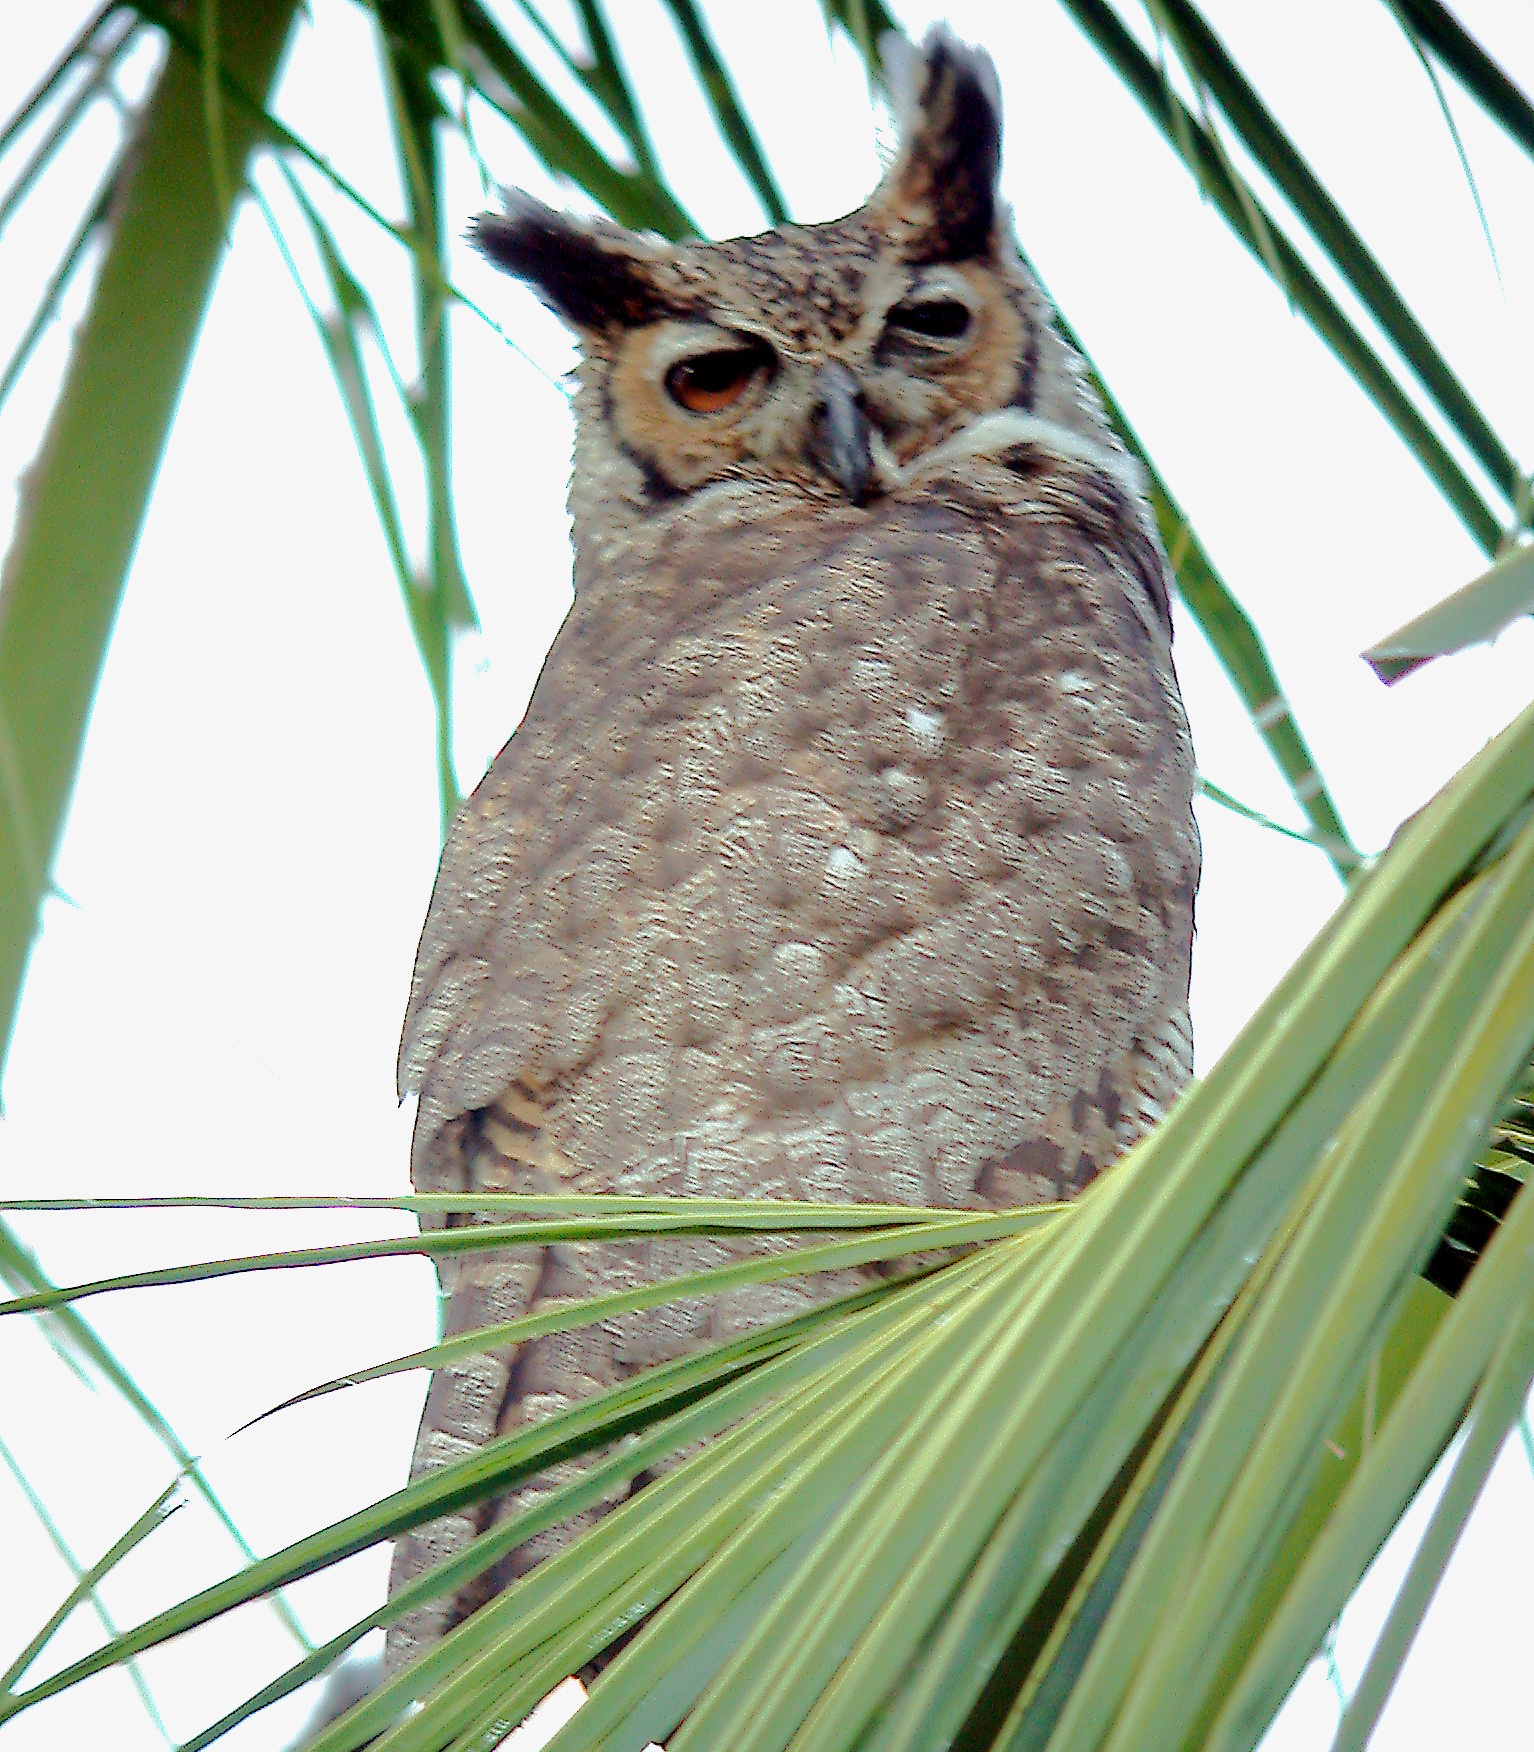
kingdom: Animalia
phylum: Chordata
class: Aves
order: Strigiformes
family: Strigidae
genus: Bubo
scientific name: Bubo virginianus
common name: Great horned owl
